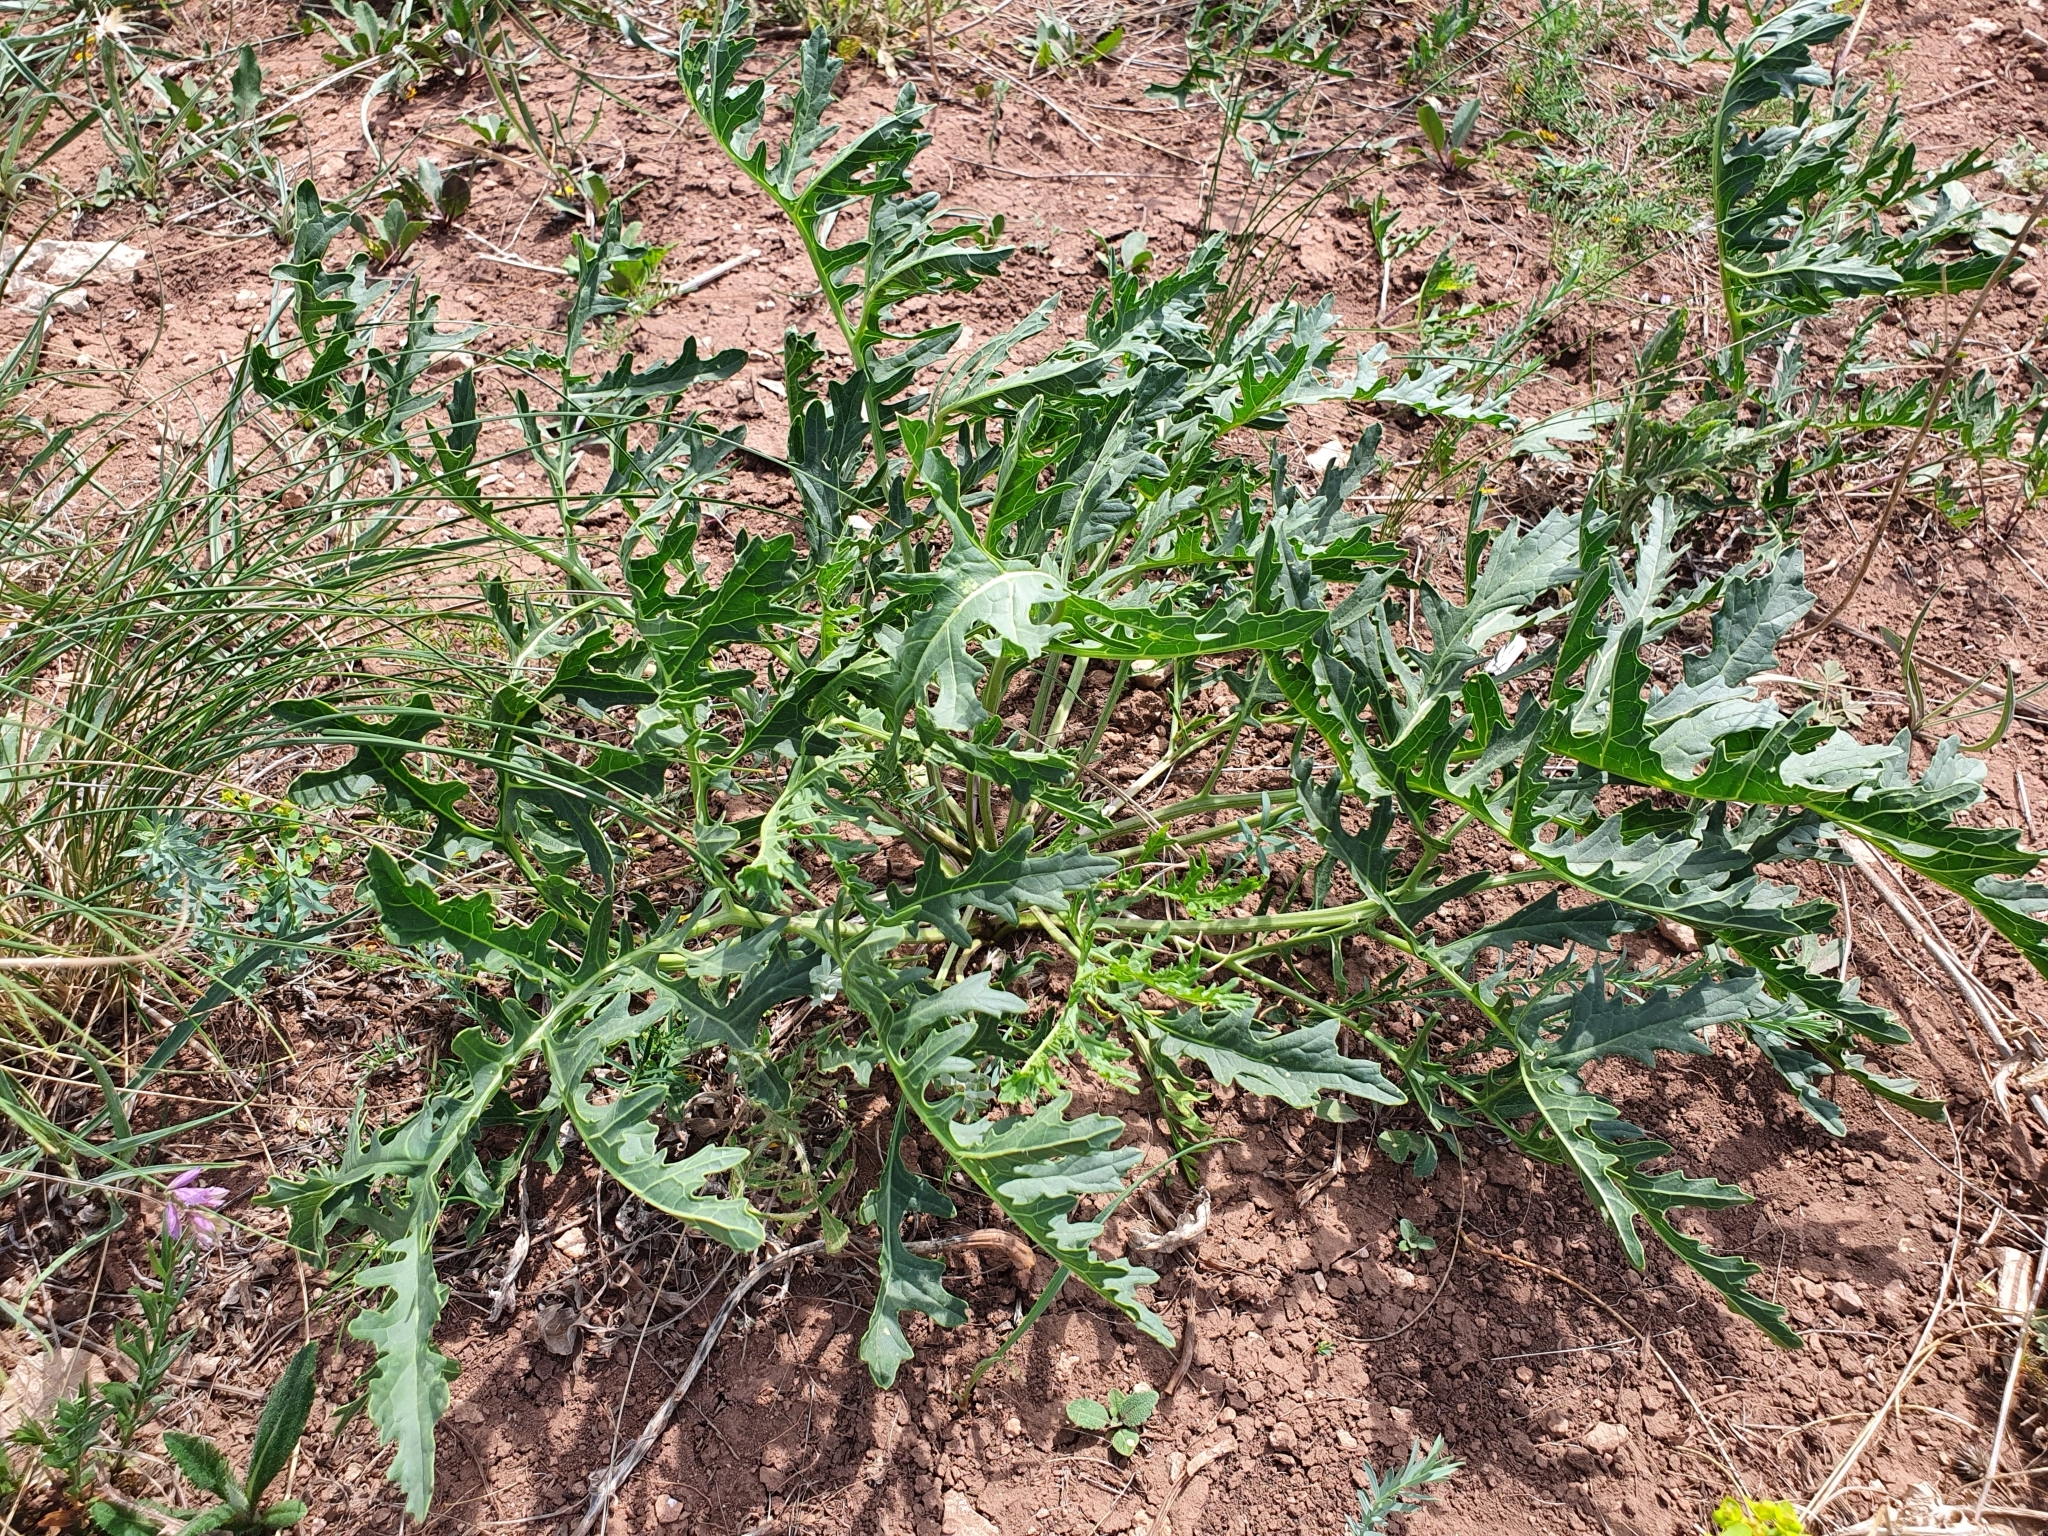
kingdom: Plantae
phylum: Tracheophyta
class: Magnoliopsida
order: Brassicales
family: Brassicaceae
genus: Crambe
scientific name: Crambe tataria
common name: Tartarian breadplant
